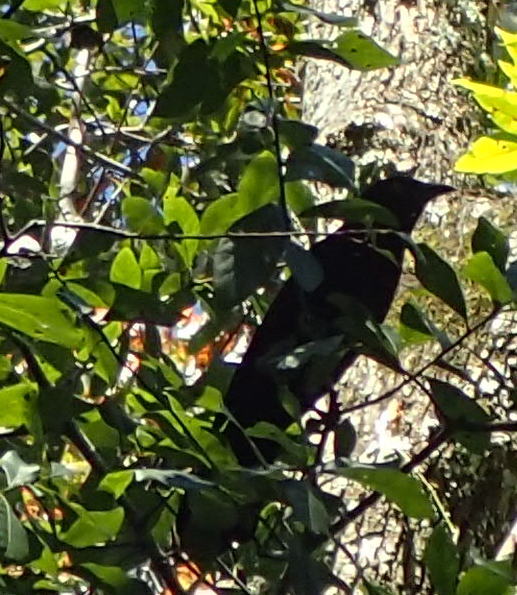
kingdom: Animalia
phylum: Chordata
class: Aves
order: Passeriformes
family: Icteridae
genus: Quiscalus
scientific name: Quiscalus major
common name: Boat-tailed grackle
